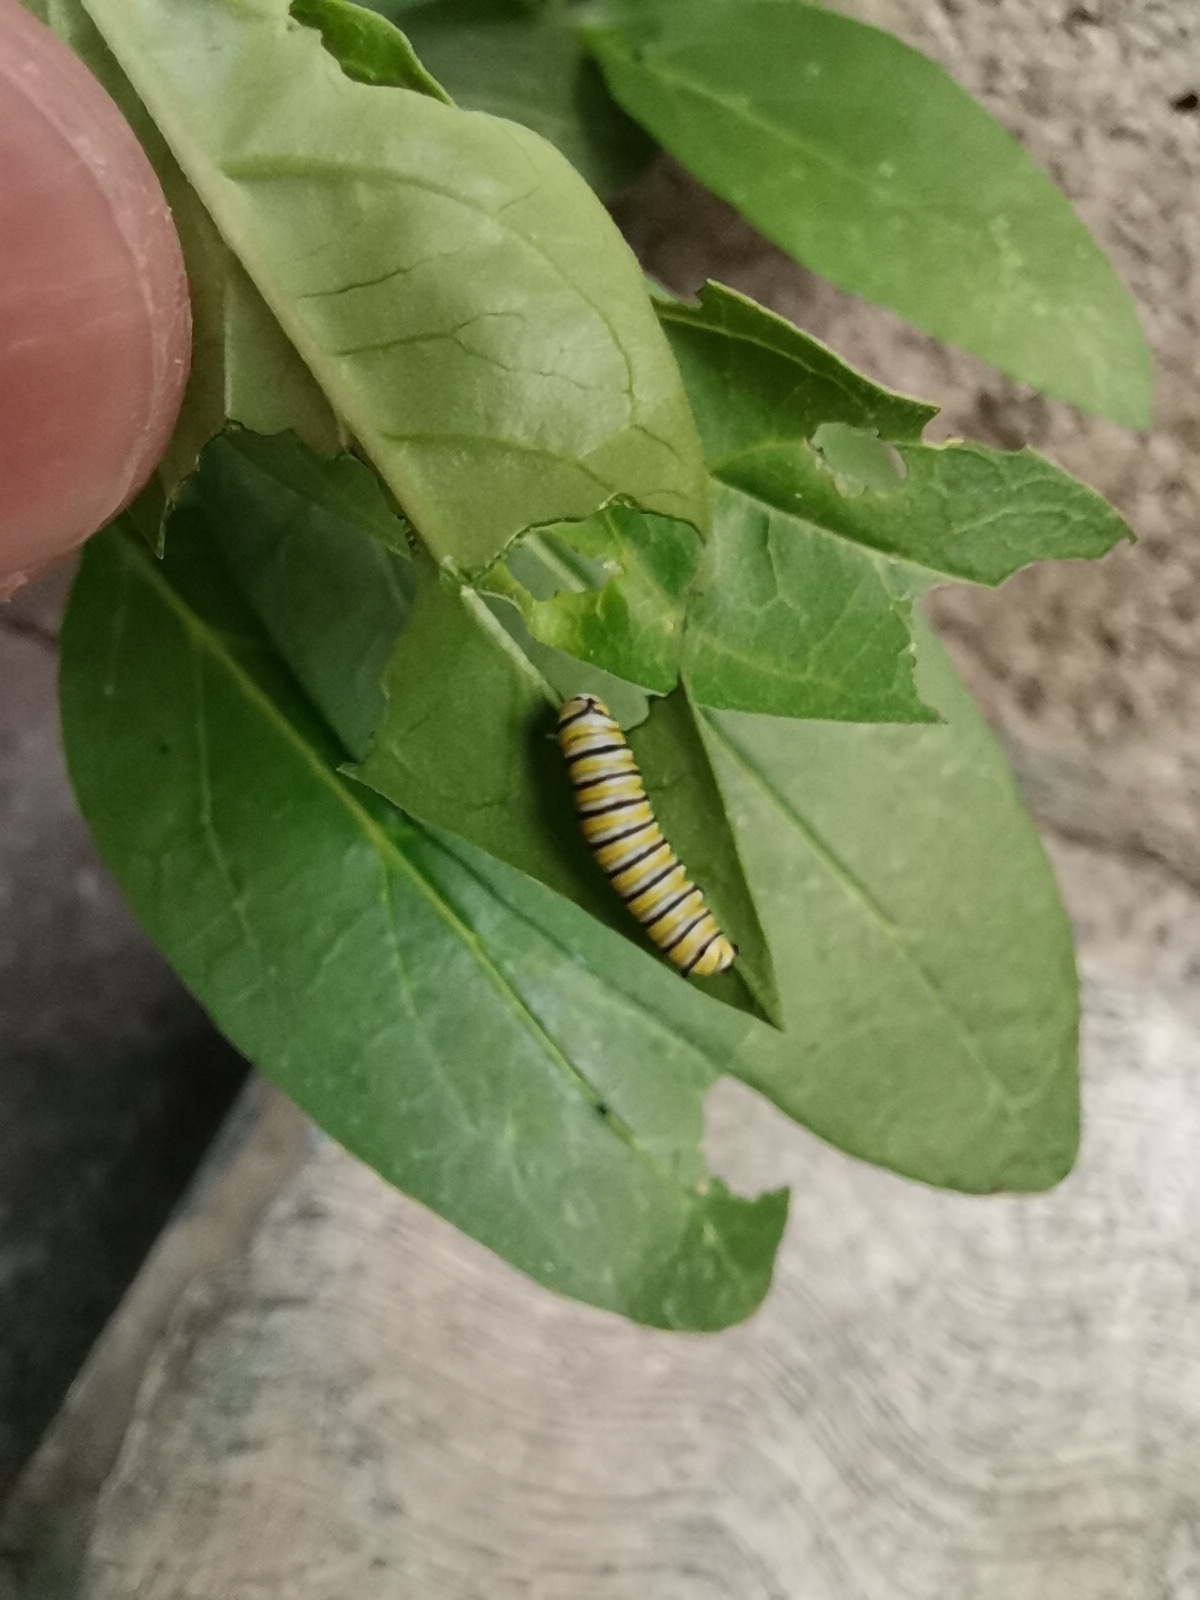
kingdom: Animalia
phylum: Arthropoda
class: Insecta
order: Lepidoptera
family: Nymphalidae
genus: Danaus
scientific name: Danaus plexippus
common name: Monarch
